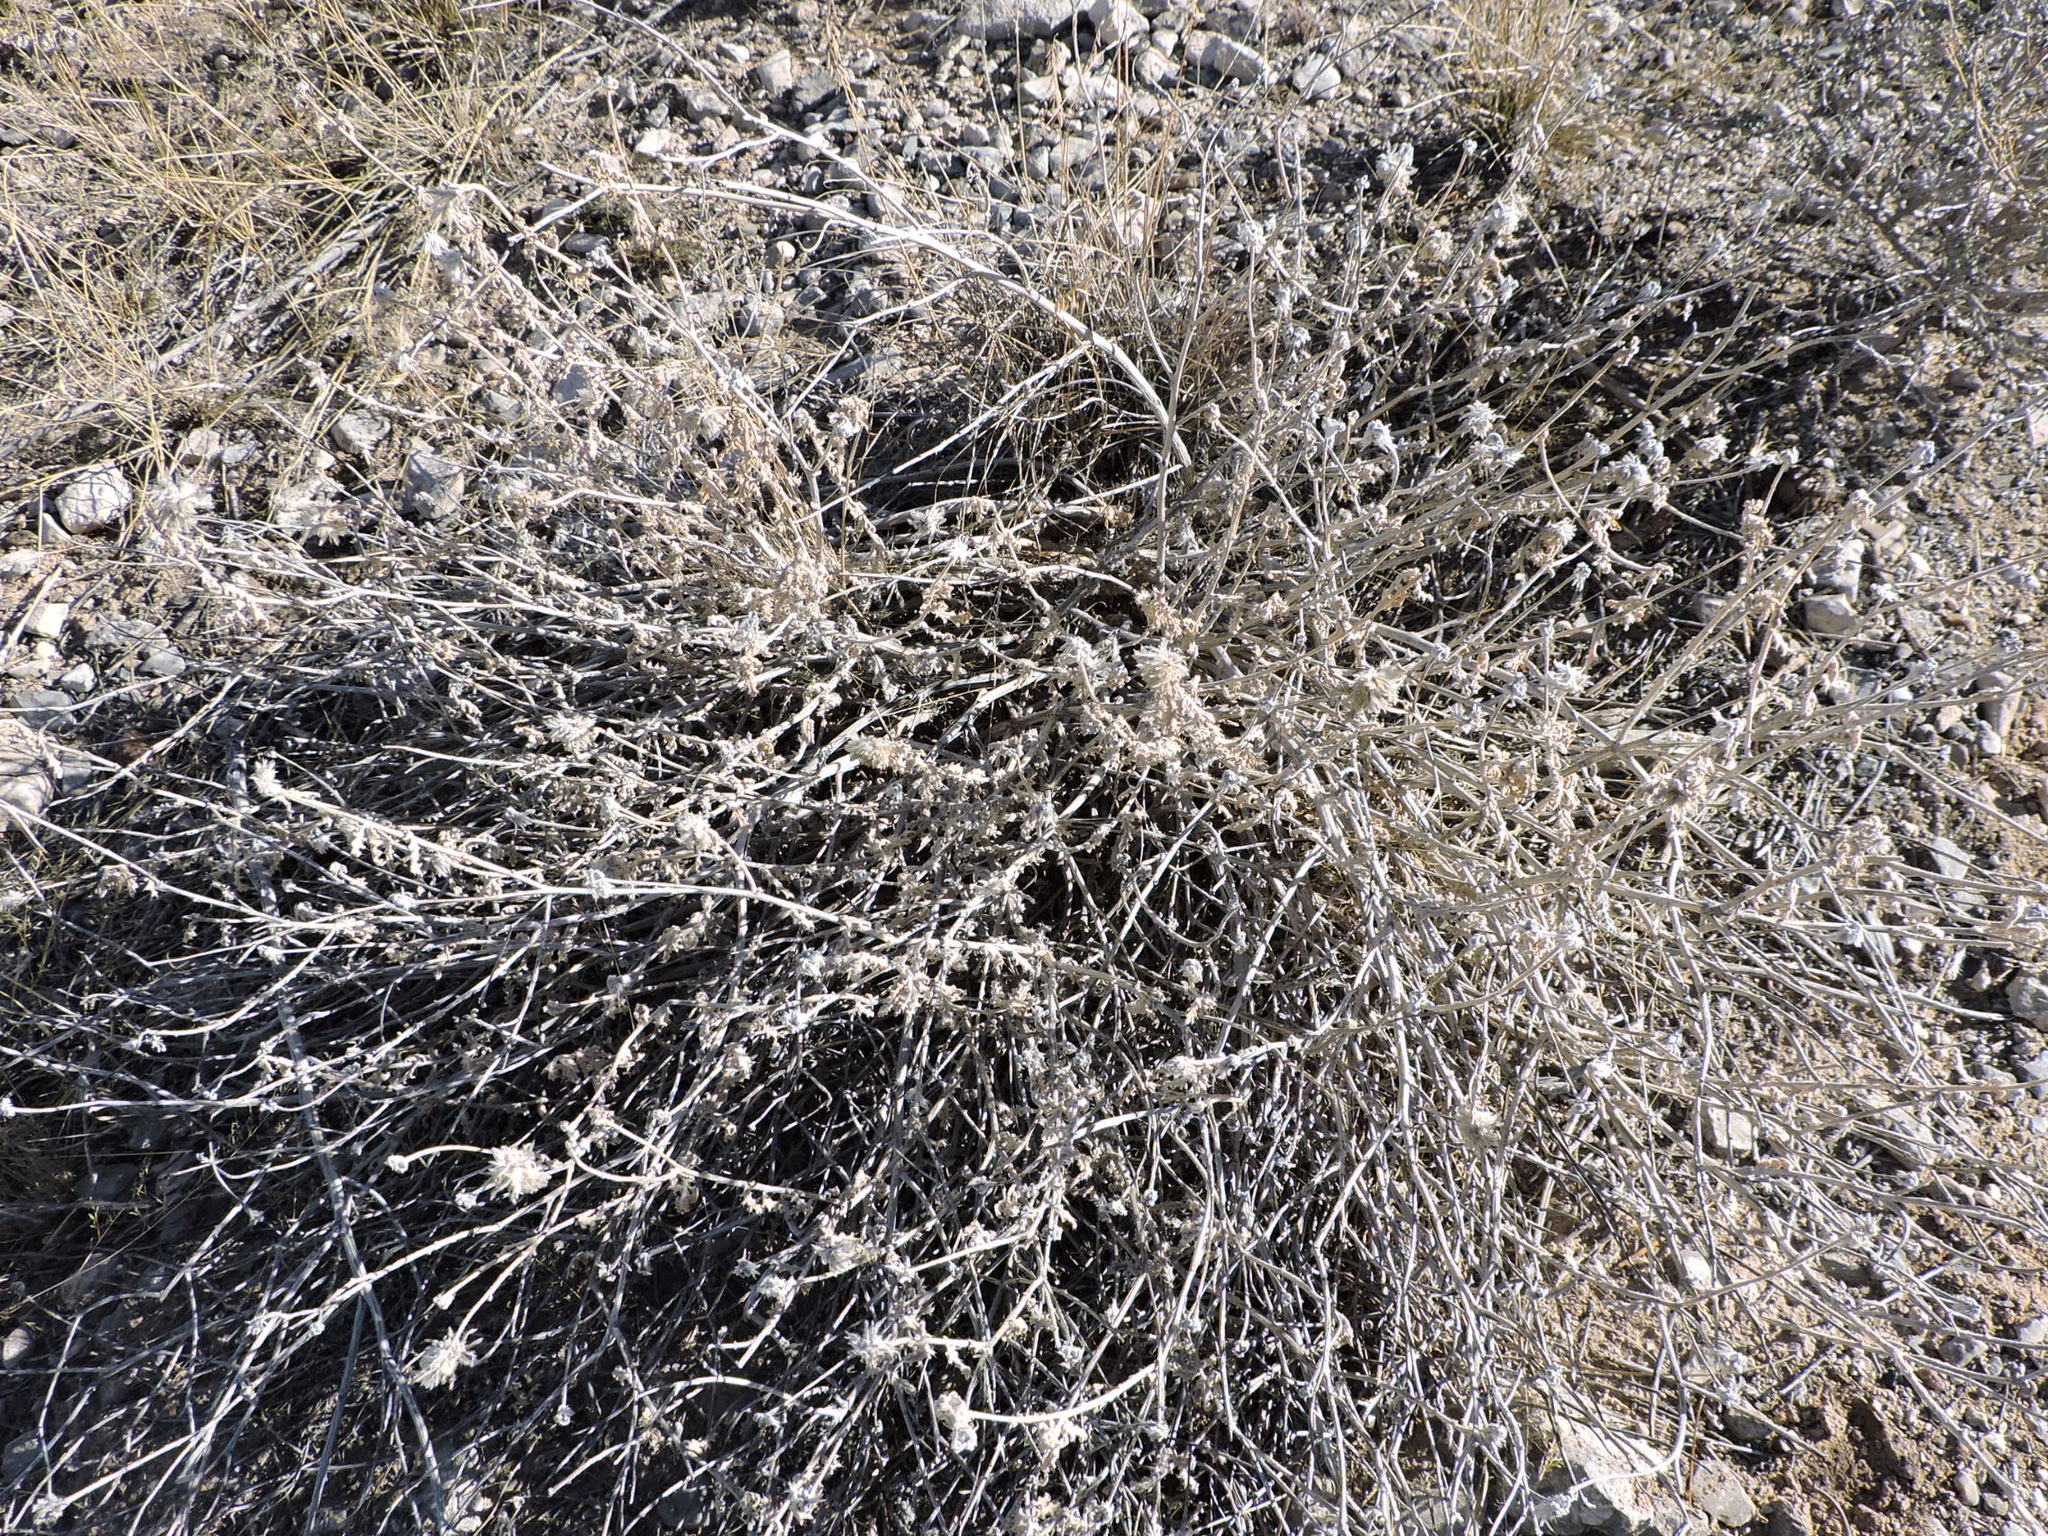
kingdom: Plantae
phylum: Tracheophyta
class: Magnoliopsida
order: Cornales
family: Loasaceae
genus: Cevallia
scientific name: Cevallia sinuata
